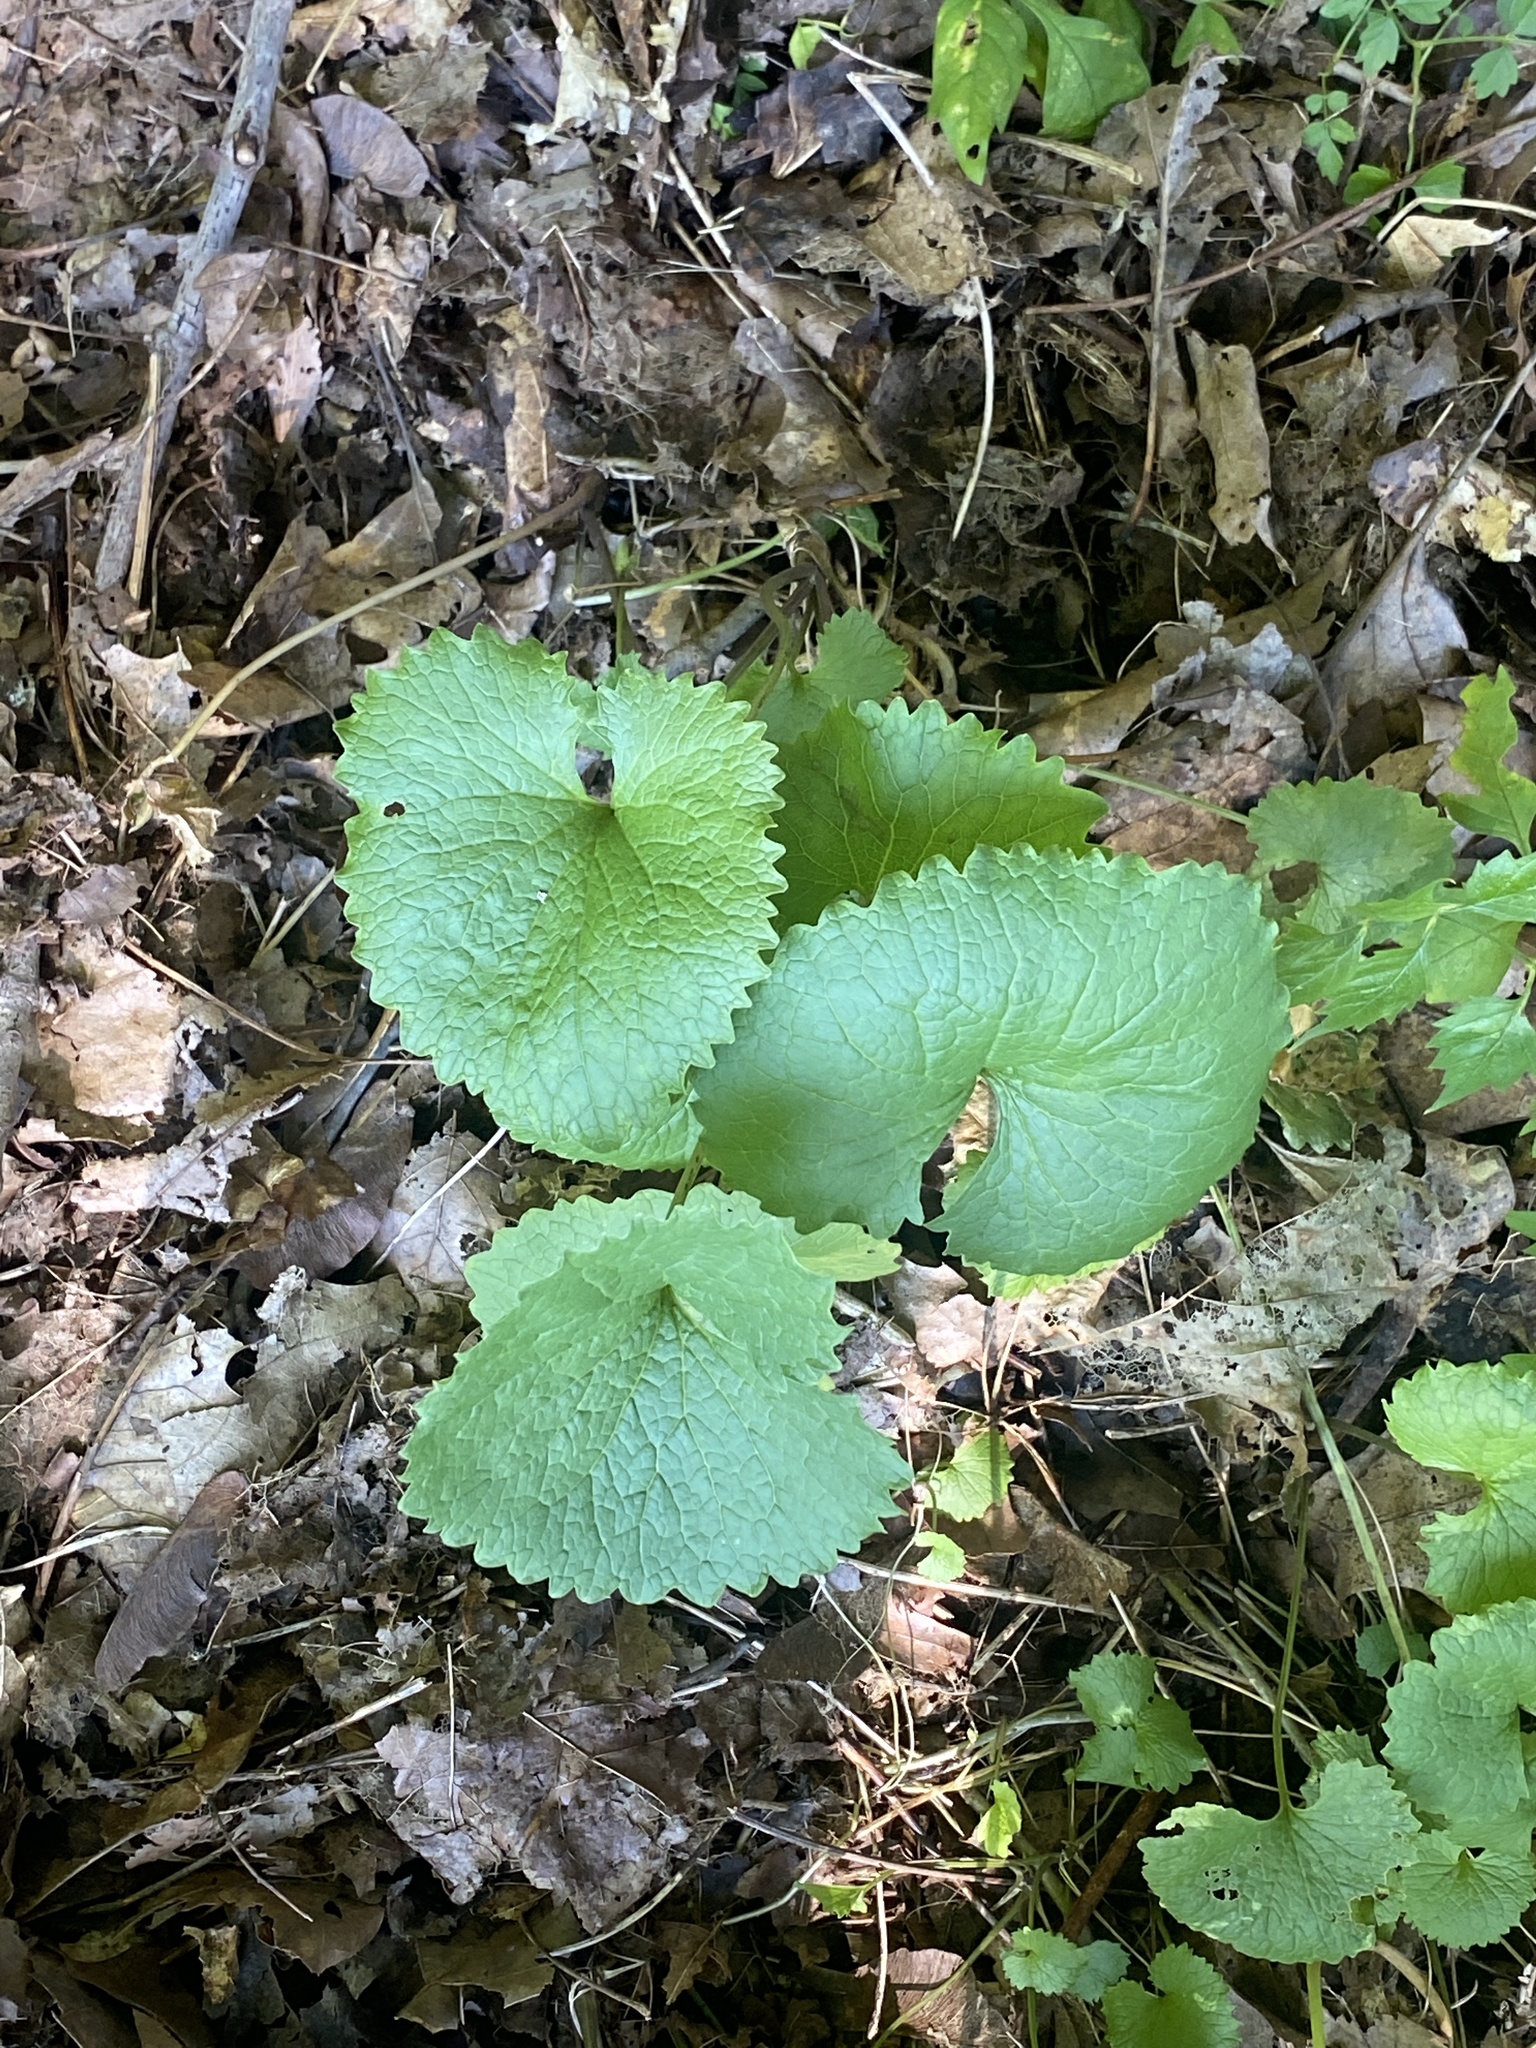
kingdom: Plantae
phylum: Tracheophyta
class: Magnoliopsida
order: Brassicales
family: Brassicaceae
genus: Alliaria
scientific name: Alliaria petiolata
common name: Garlic mustard
